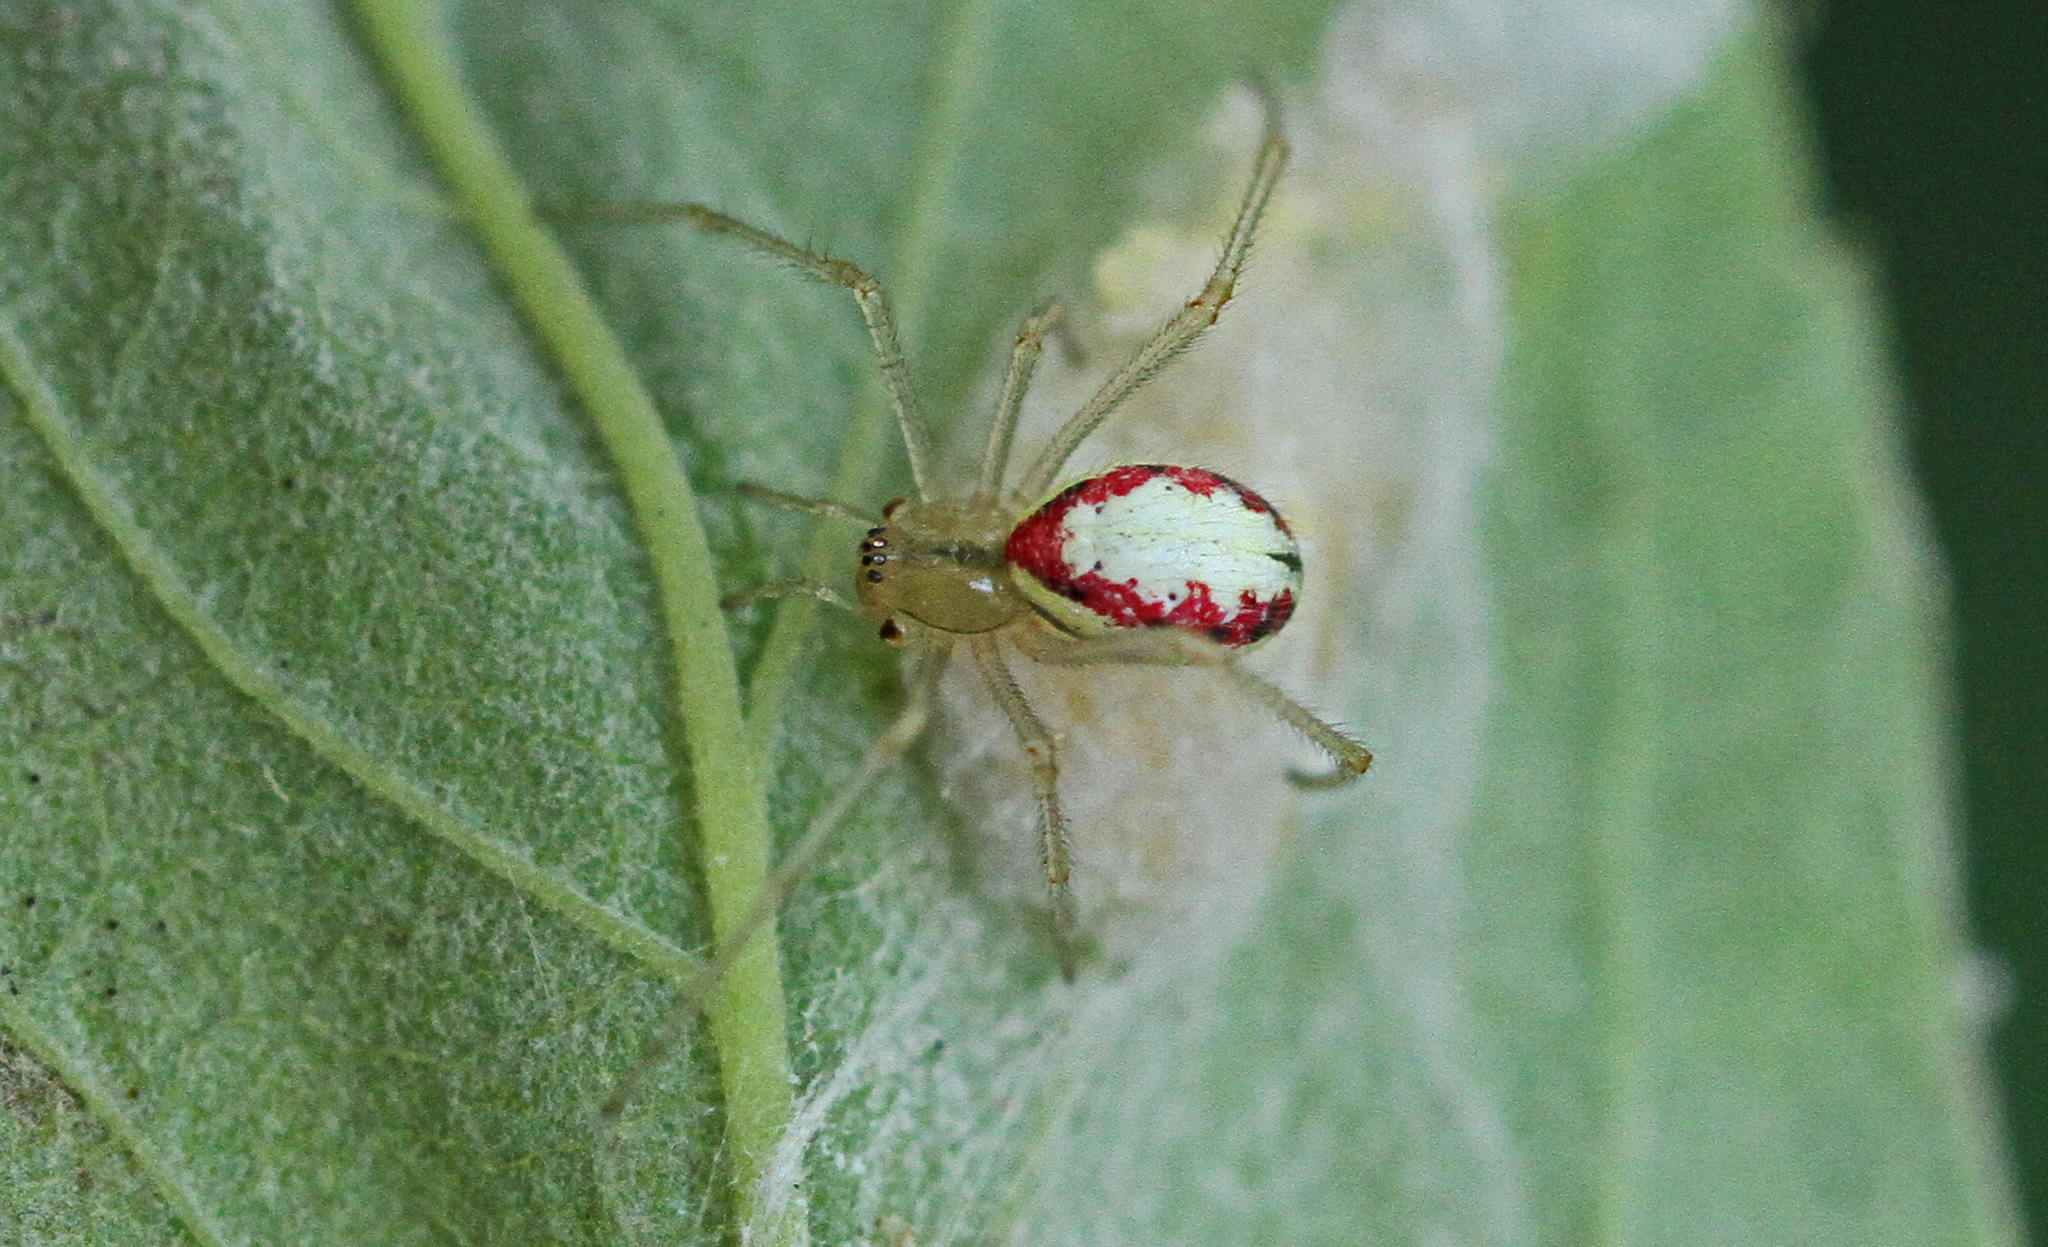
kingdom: Animalia
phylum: Arthropoda
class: Arachnida
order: Araneae
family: Theridiidae
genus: Enoplognatha
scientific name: Enoplognatha ovata
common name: Common candy-striped spider
